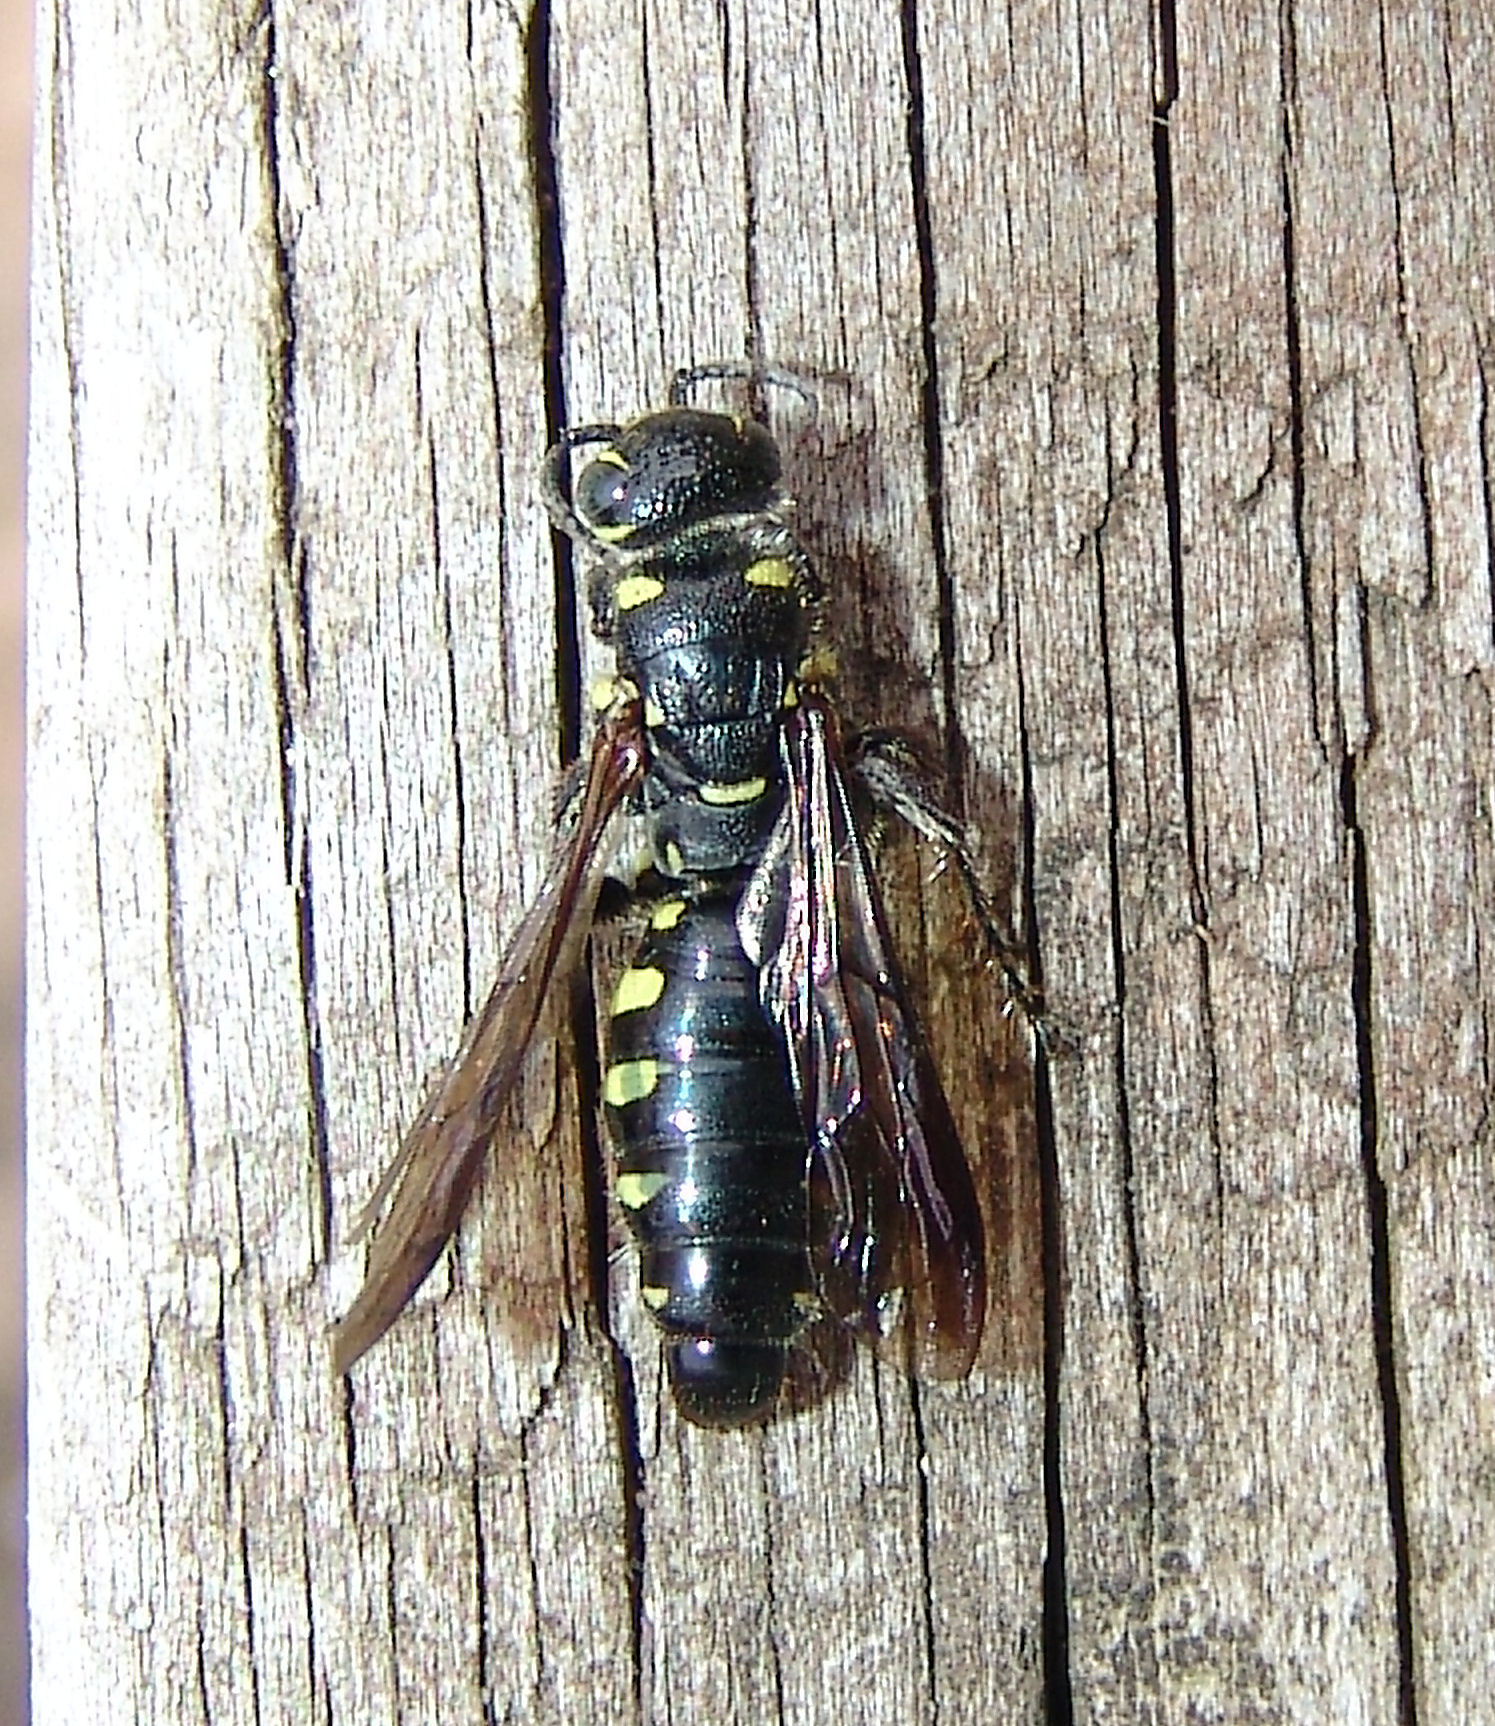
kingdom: Animalia
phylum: Arthropoda
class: Insecta
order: Hymenoptera
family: Tiphiidae
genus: Myzinum
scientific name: Myzinum obscurum
